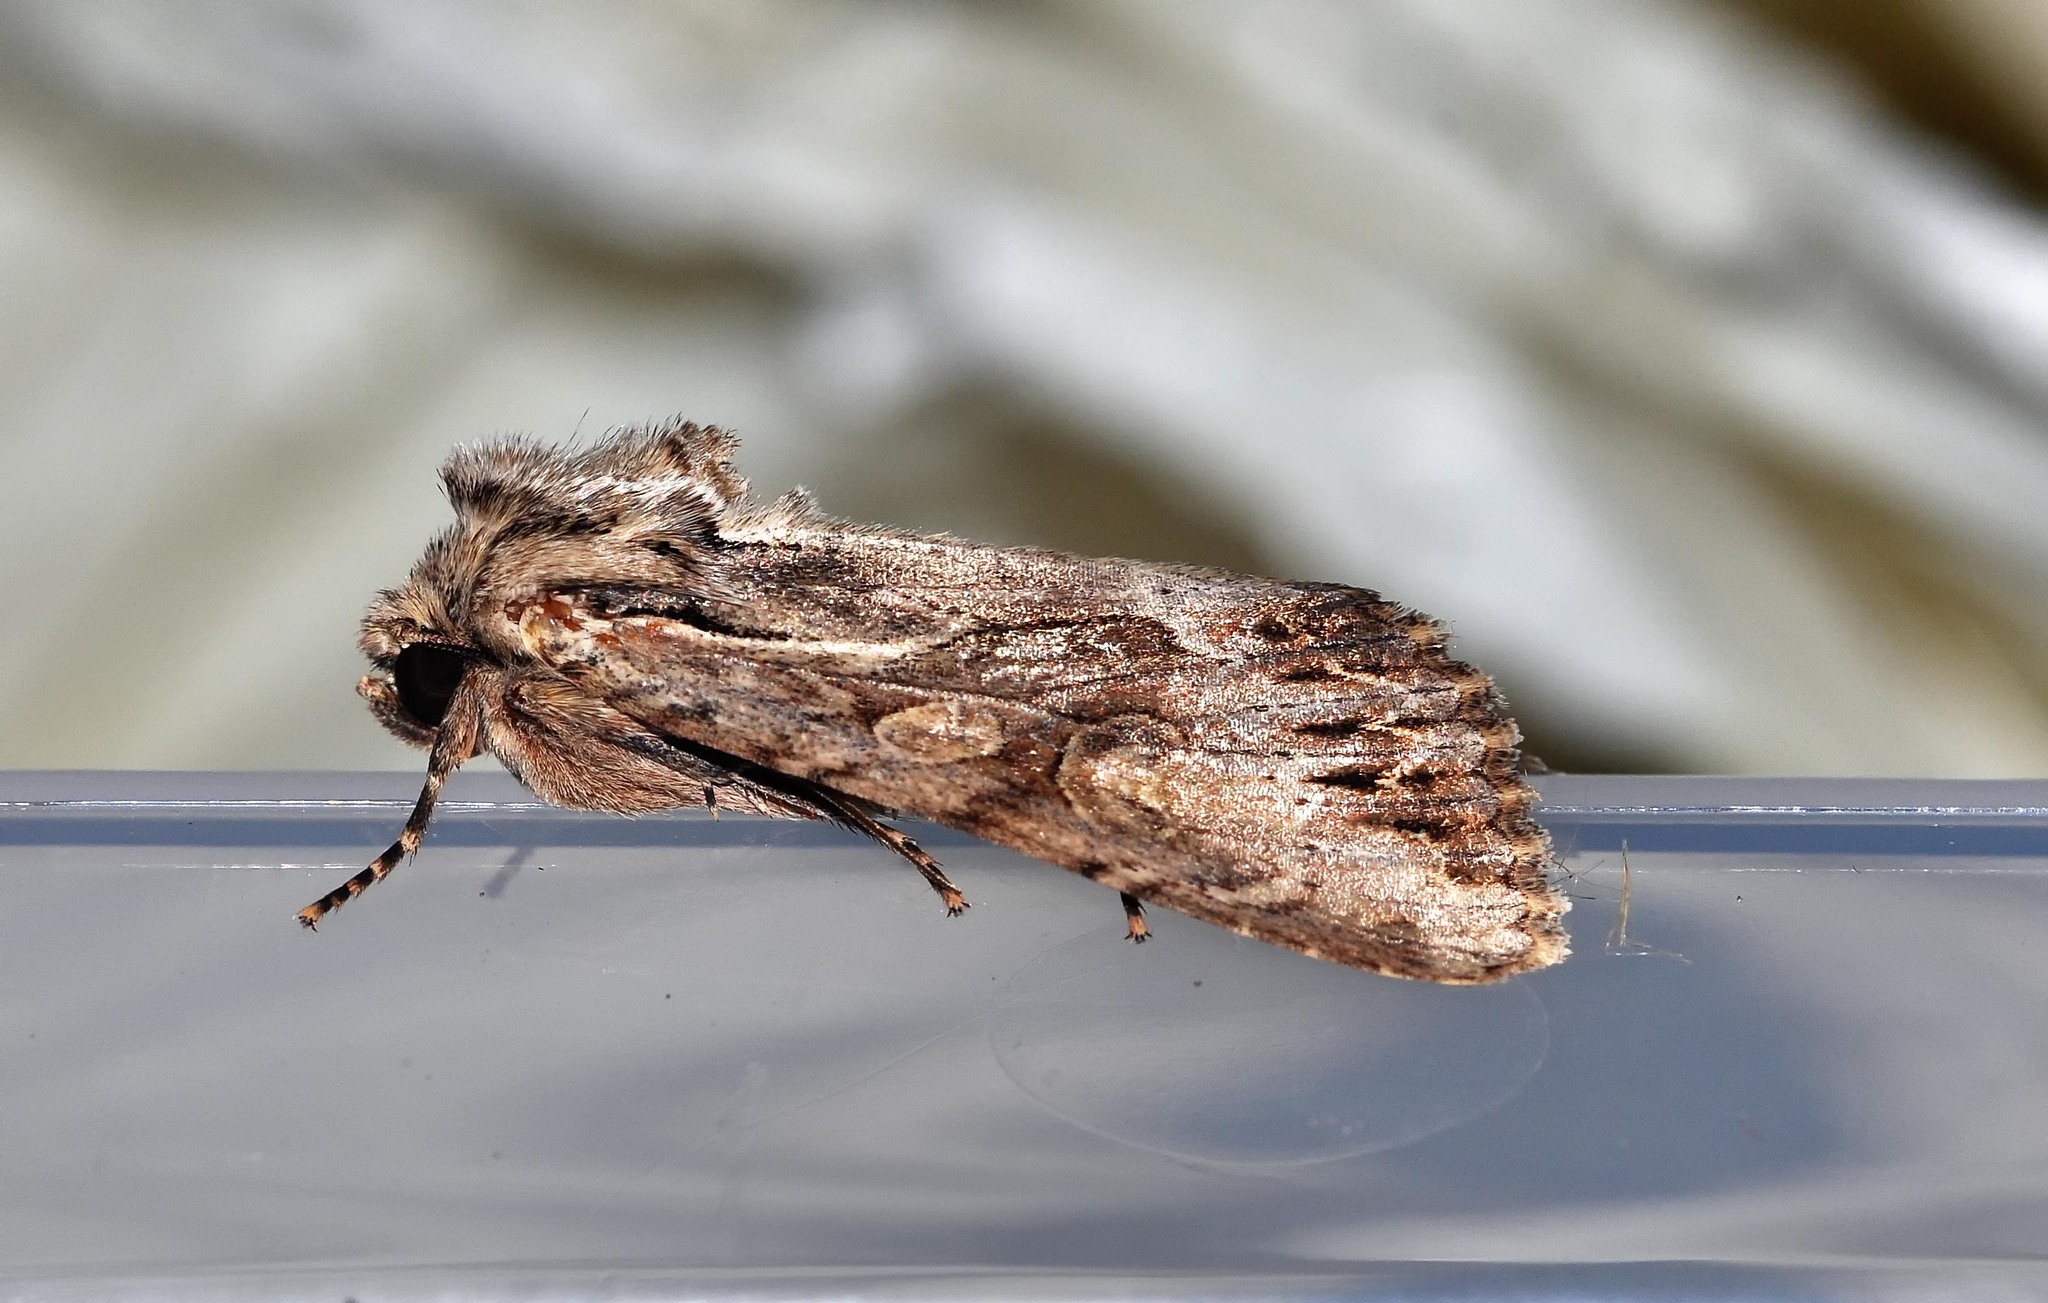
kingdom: Animalia
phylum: Arthropoda
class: Insecta
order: Lepidoptera
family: Noctuidae
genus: Apamea
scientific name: Apamea monoglypha
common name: Dark arches
